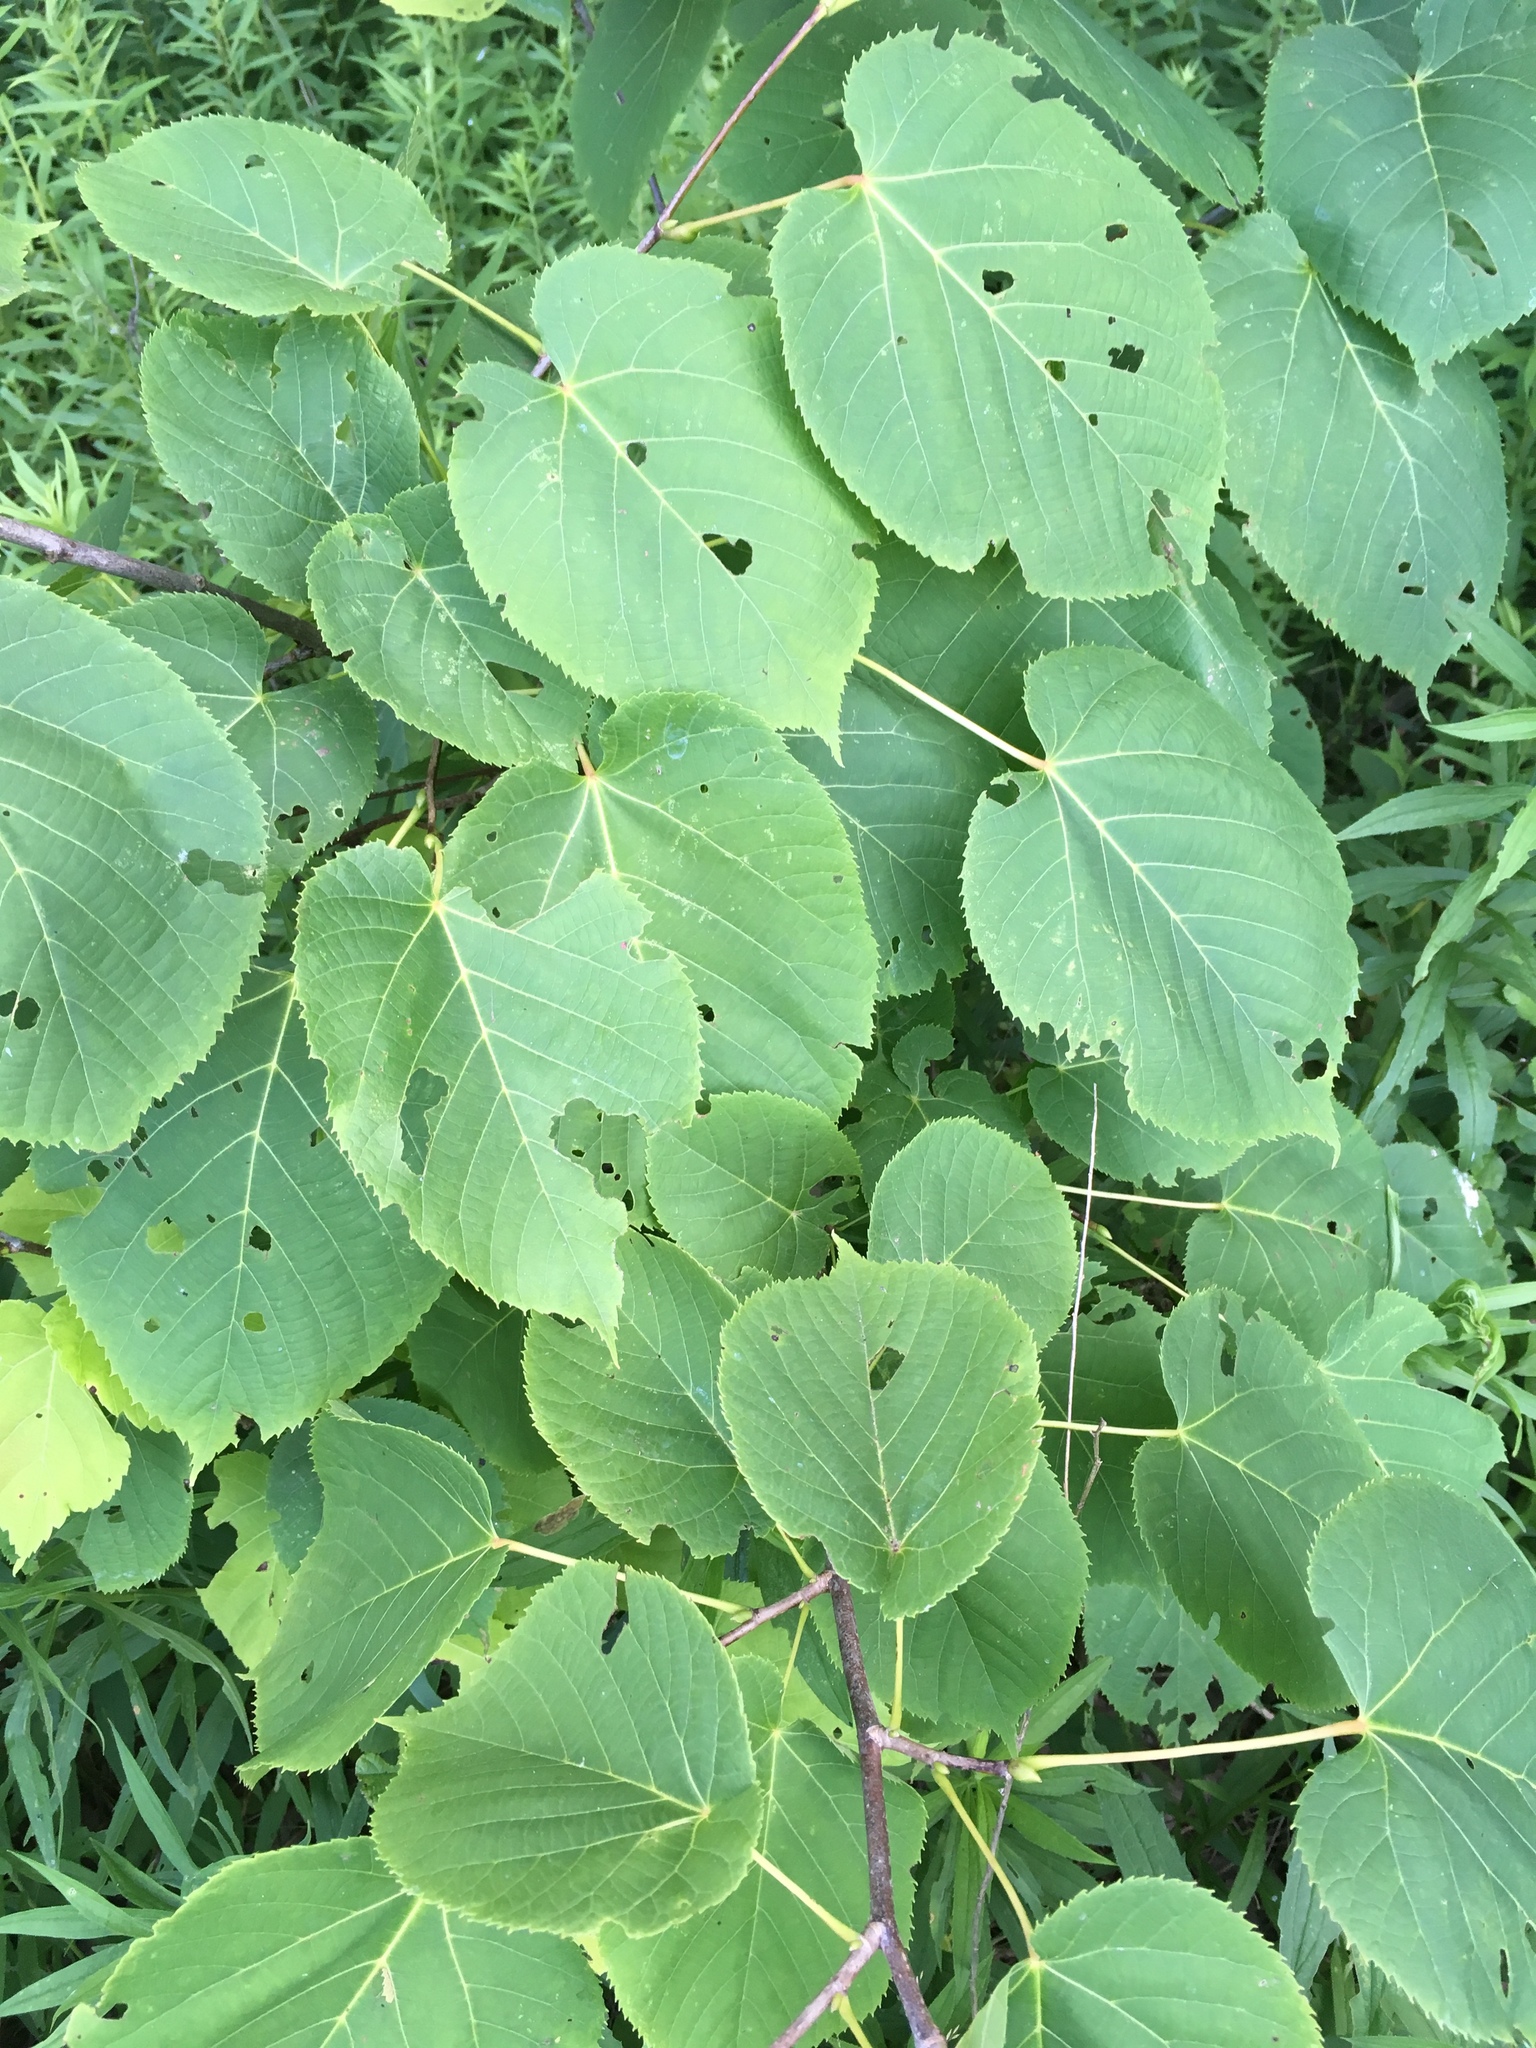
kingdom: Plantae
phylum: Tracheophyta
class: Magnoliopsida
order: Malvales
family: Malvaceae
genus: Tilia
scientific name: Tilia americana
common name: Basswood
